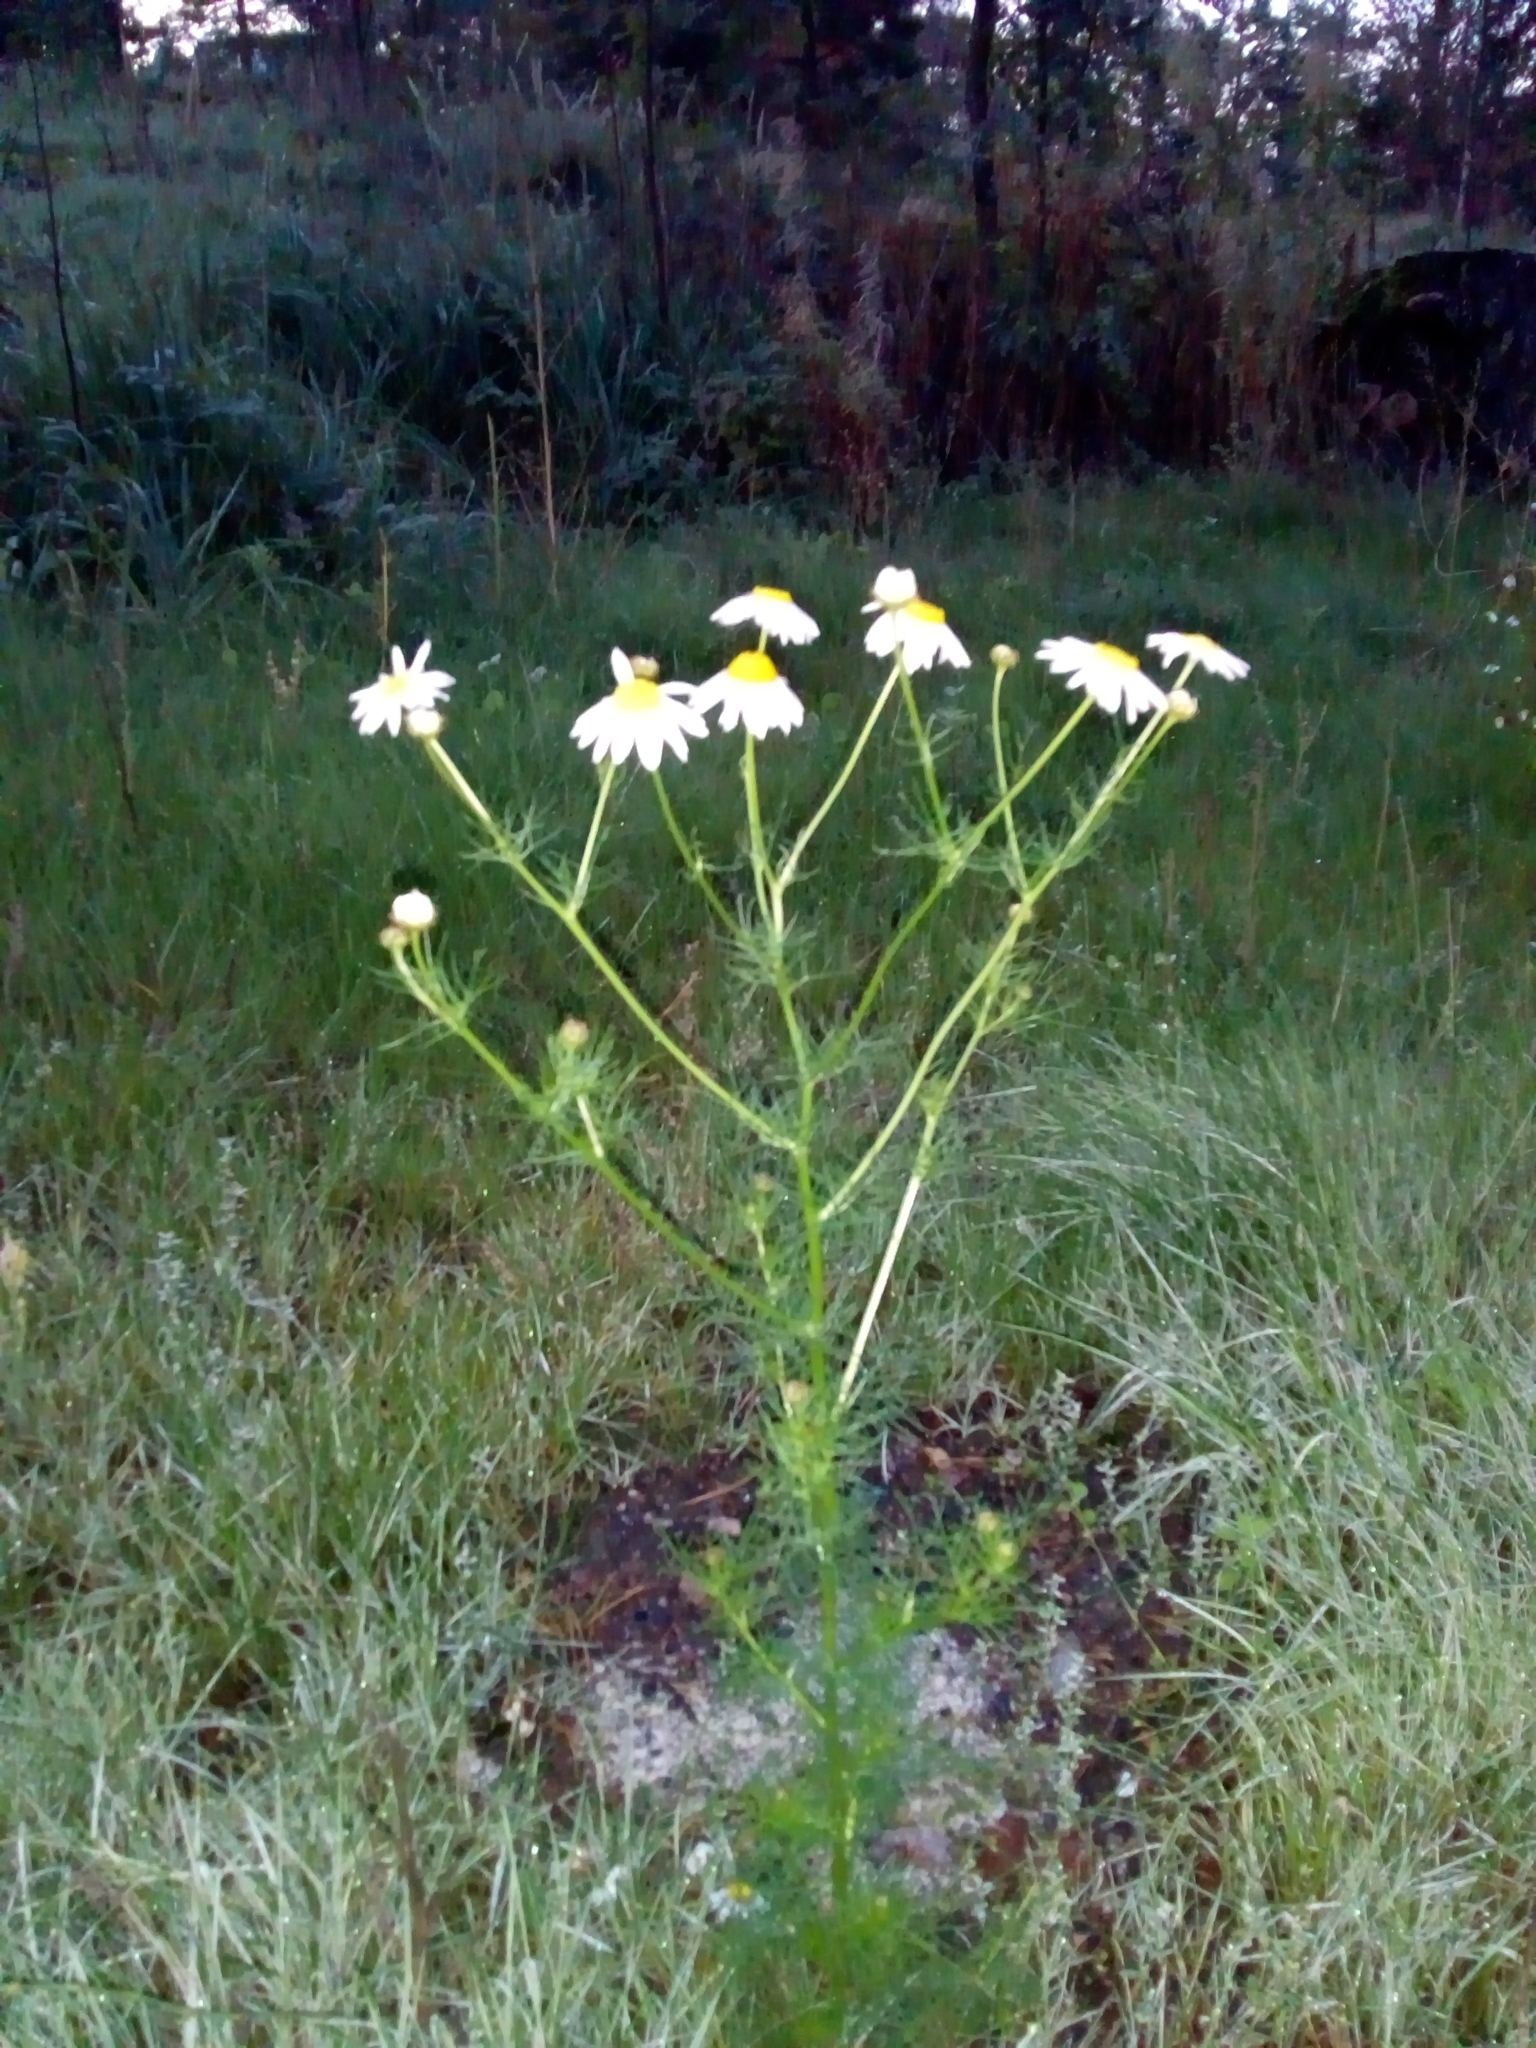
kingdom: Plantae
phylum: Tracheophyta
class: Magnoliopsida
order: Asterales
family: Asteraceae
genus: Tripleurospermum
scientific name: Tripleurospermum inodorum
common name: Scentless mayweed
